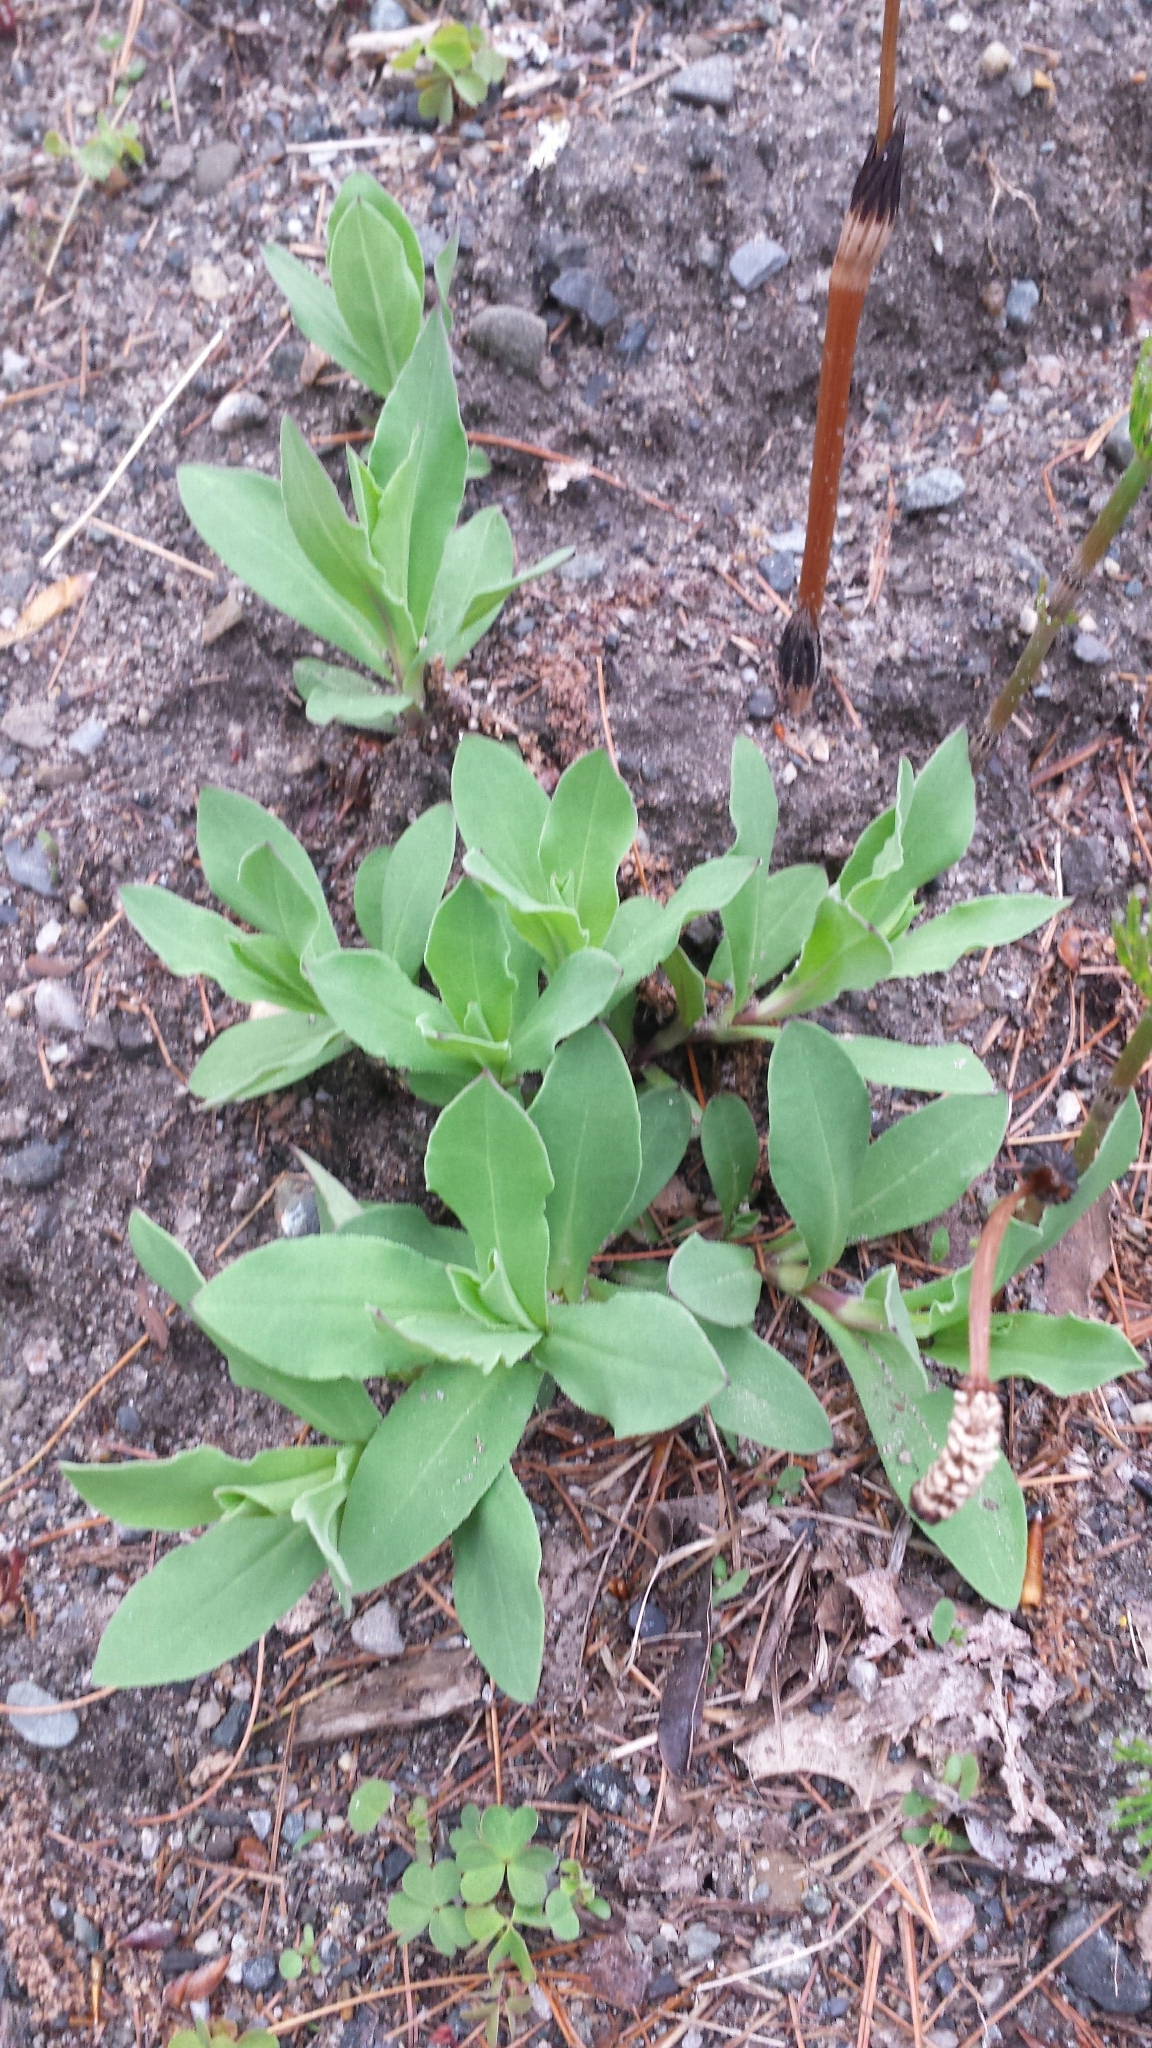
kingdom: Plantae
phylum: Tracheophyta
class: Magnoliopsida
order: Caryophyllales
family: Caryophyllaceae
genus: Silene
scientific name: Silene vulgaris
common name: Bladder campion
